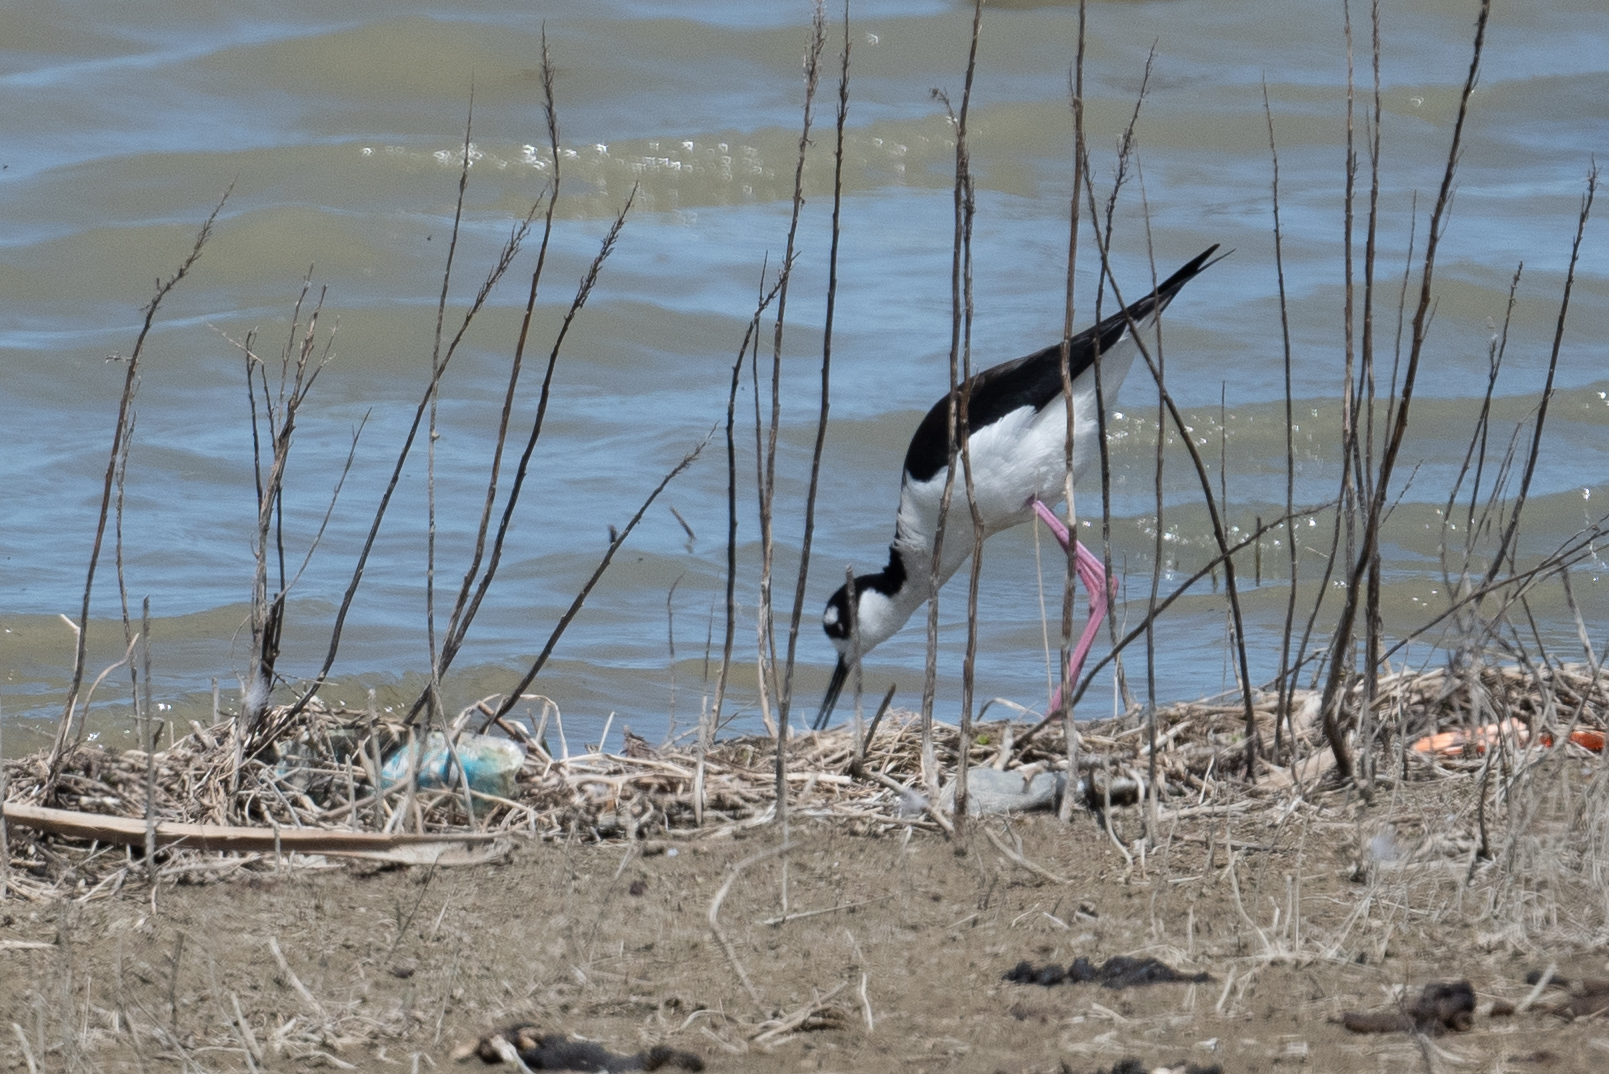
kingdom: Animalia
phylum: Chordata
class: Aves
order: Charadriiformes
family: Recurvirostridae
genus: Himantopus
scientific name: Himantopus mexicanus
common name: Black-necked stilt
